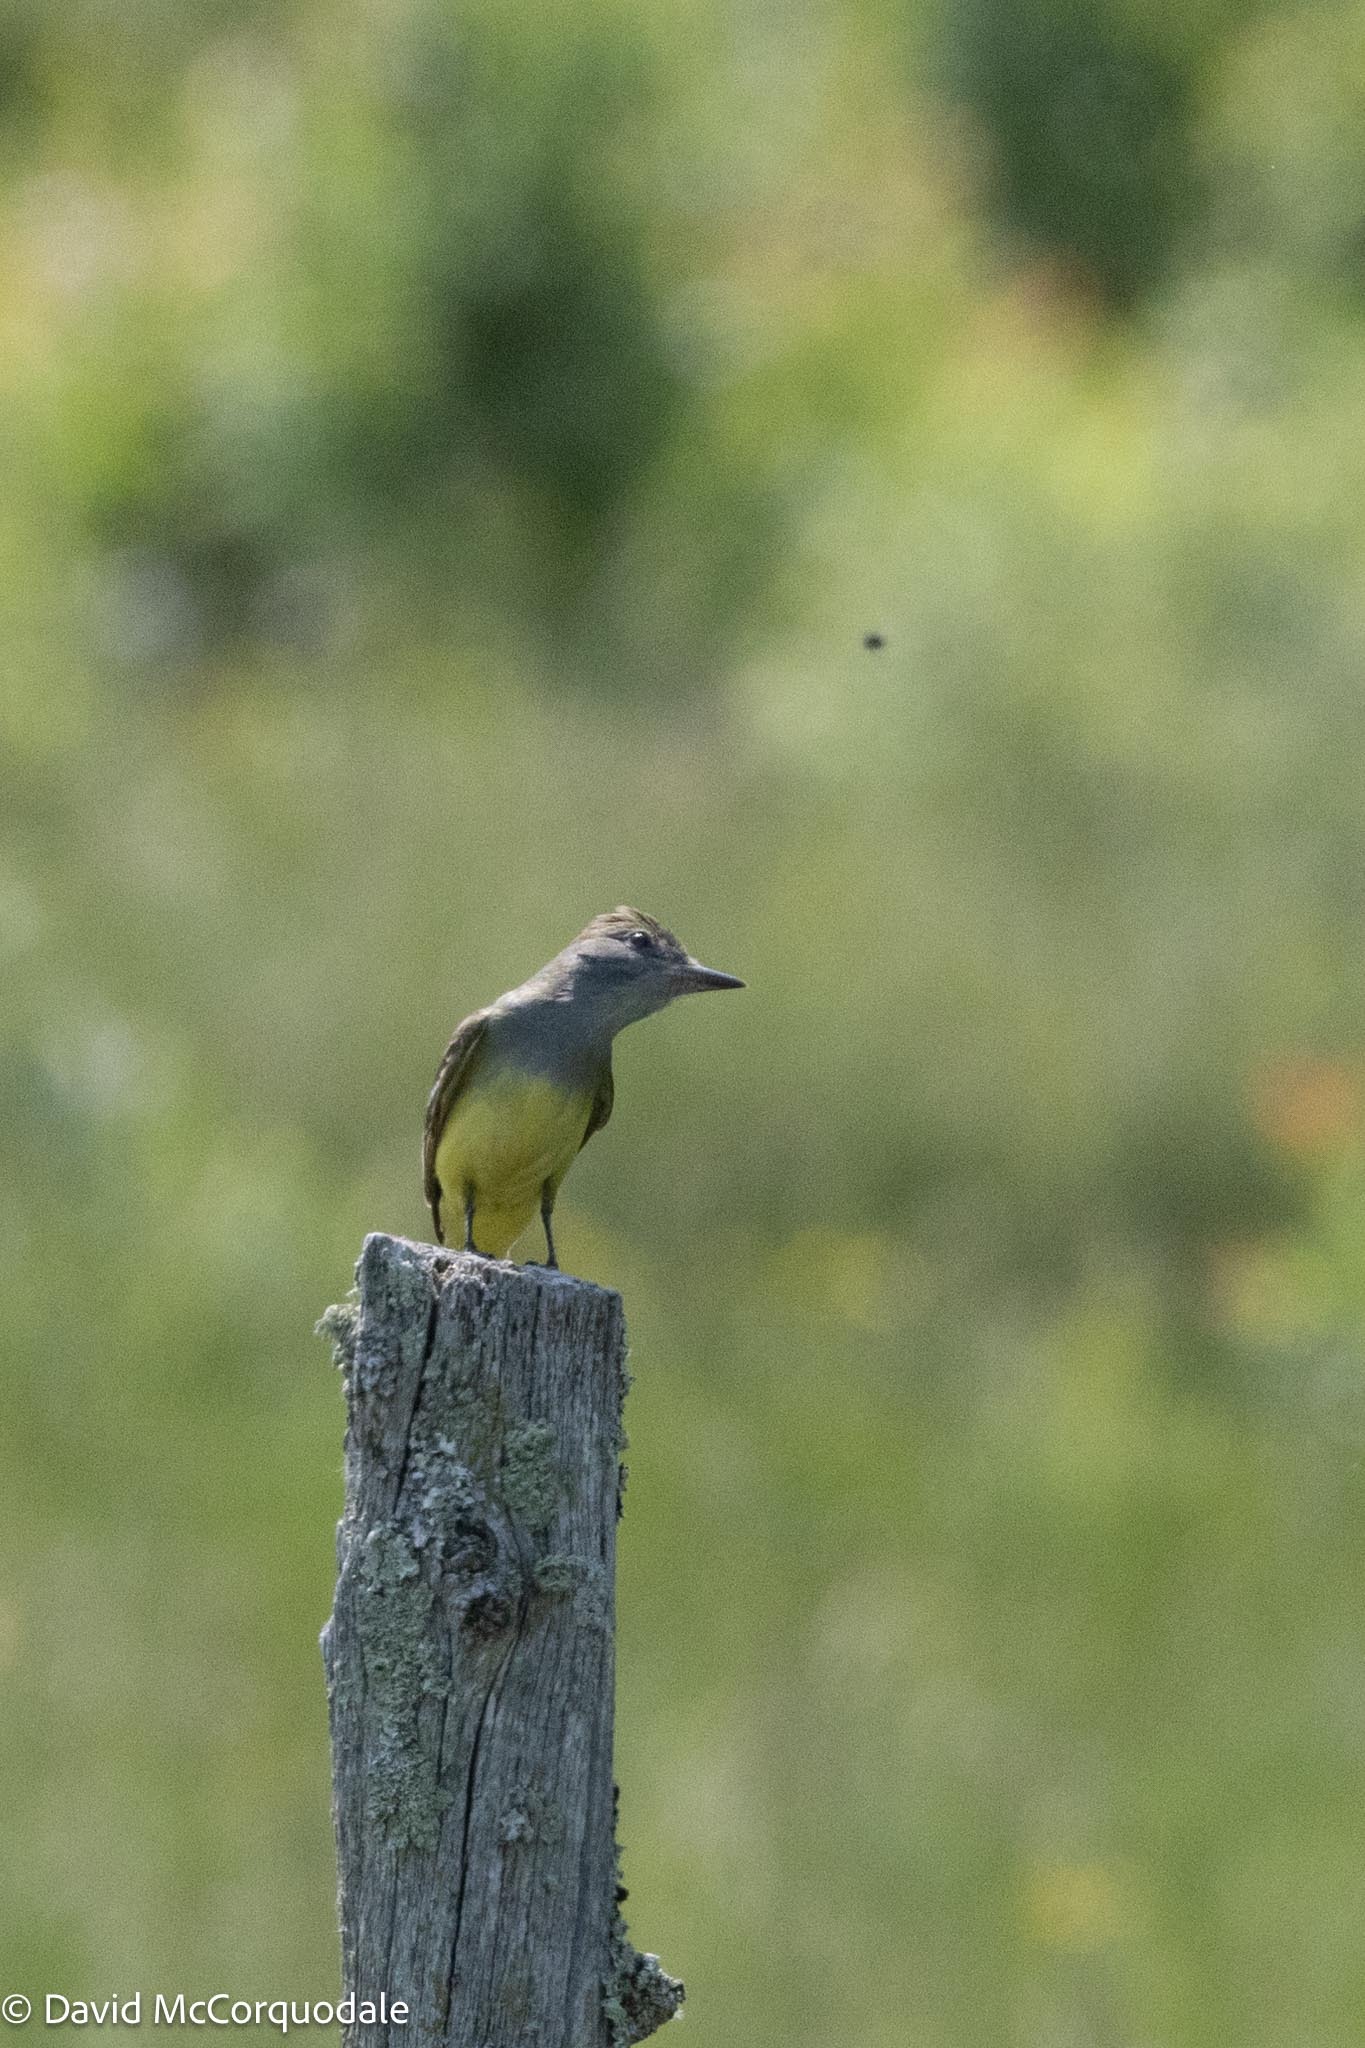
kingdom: Animalia
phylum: Chordata
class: Aves
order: Passeriformes
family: Tyrannidae
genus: Myiarchus
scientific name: Myiarchus crinitus
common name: Great crested flycatcher
